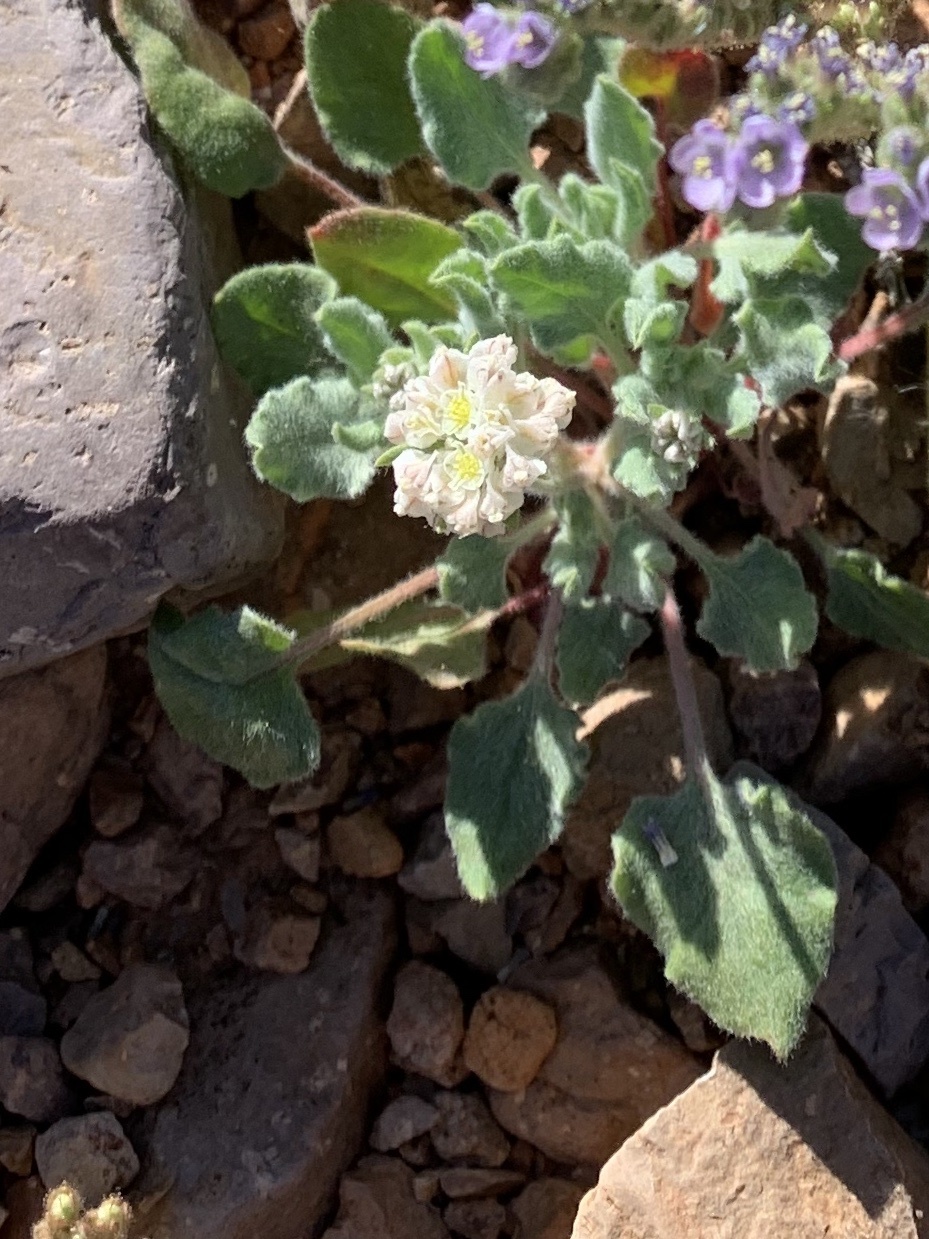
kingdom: Plantae
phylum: Tracheophyta
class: Magnoliopsida
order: Caryophyllales
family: Polygonaceae
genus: Eriogonum
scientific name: Eriogonum abertianum
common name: Abert's wild buckwheat
